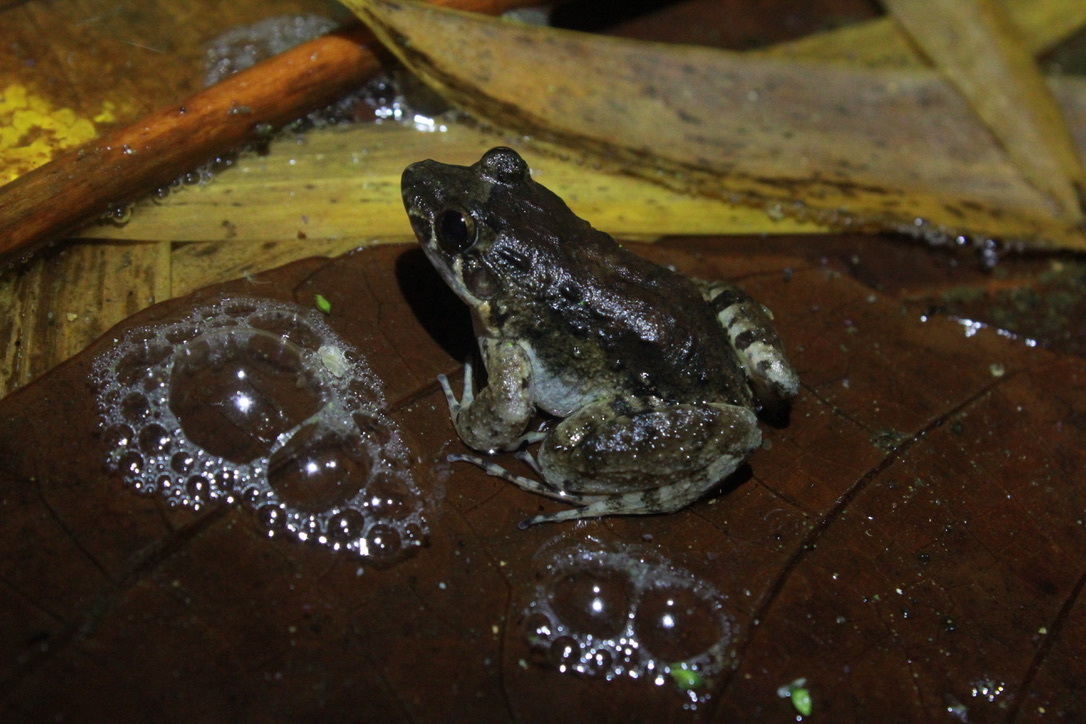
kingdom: Animalia
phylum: Chordata
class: Amphibia
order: Anura
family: Leptodactylidae
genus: Leptodactylus
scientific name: Leptodactylus validus
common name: Smooth-skinned ditch frog
